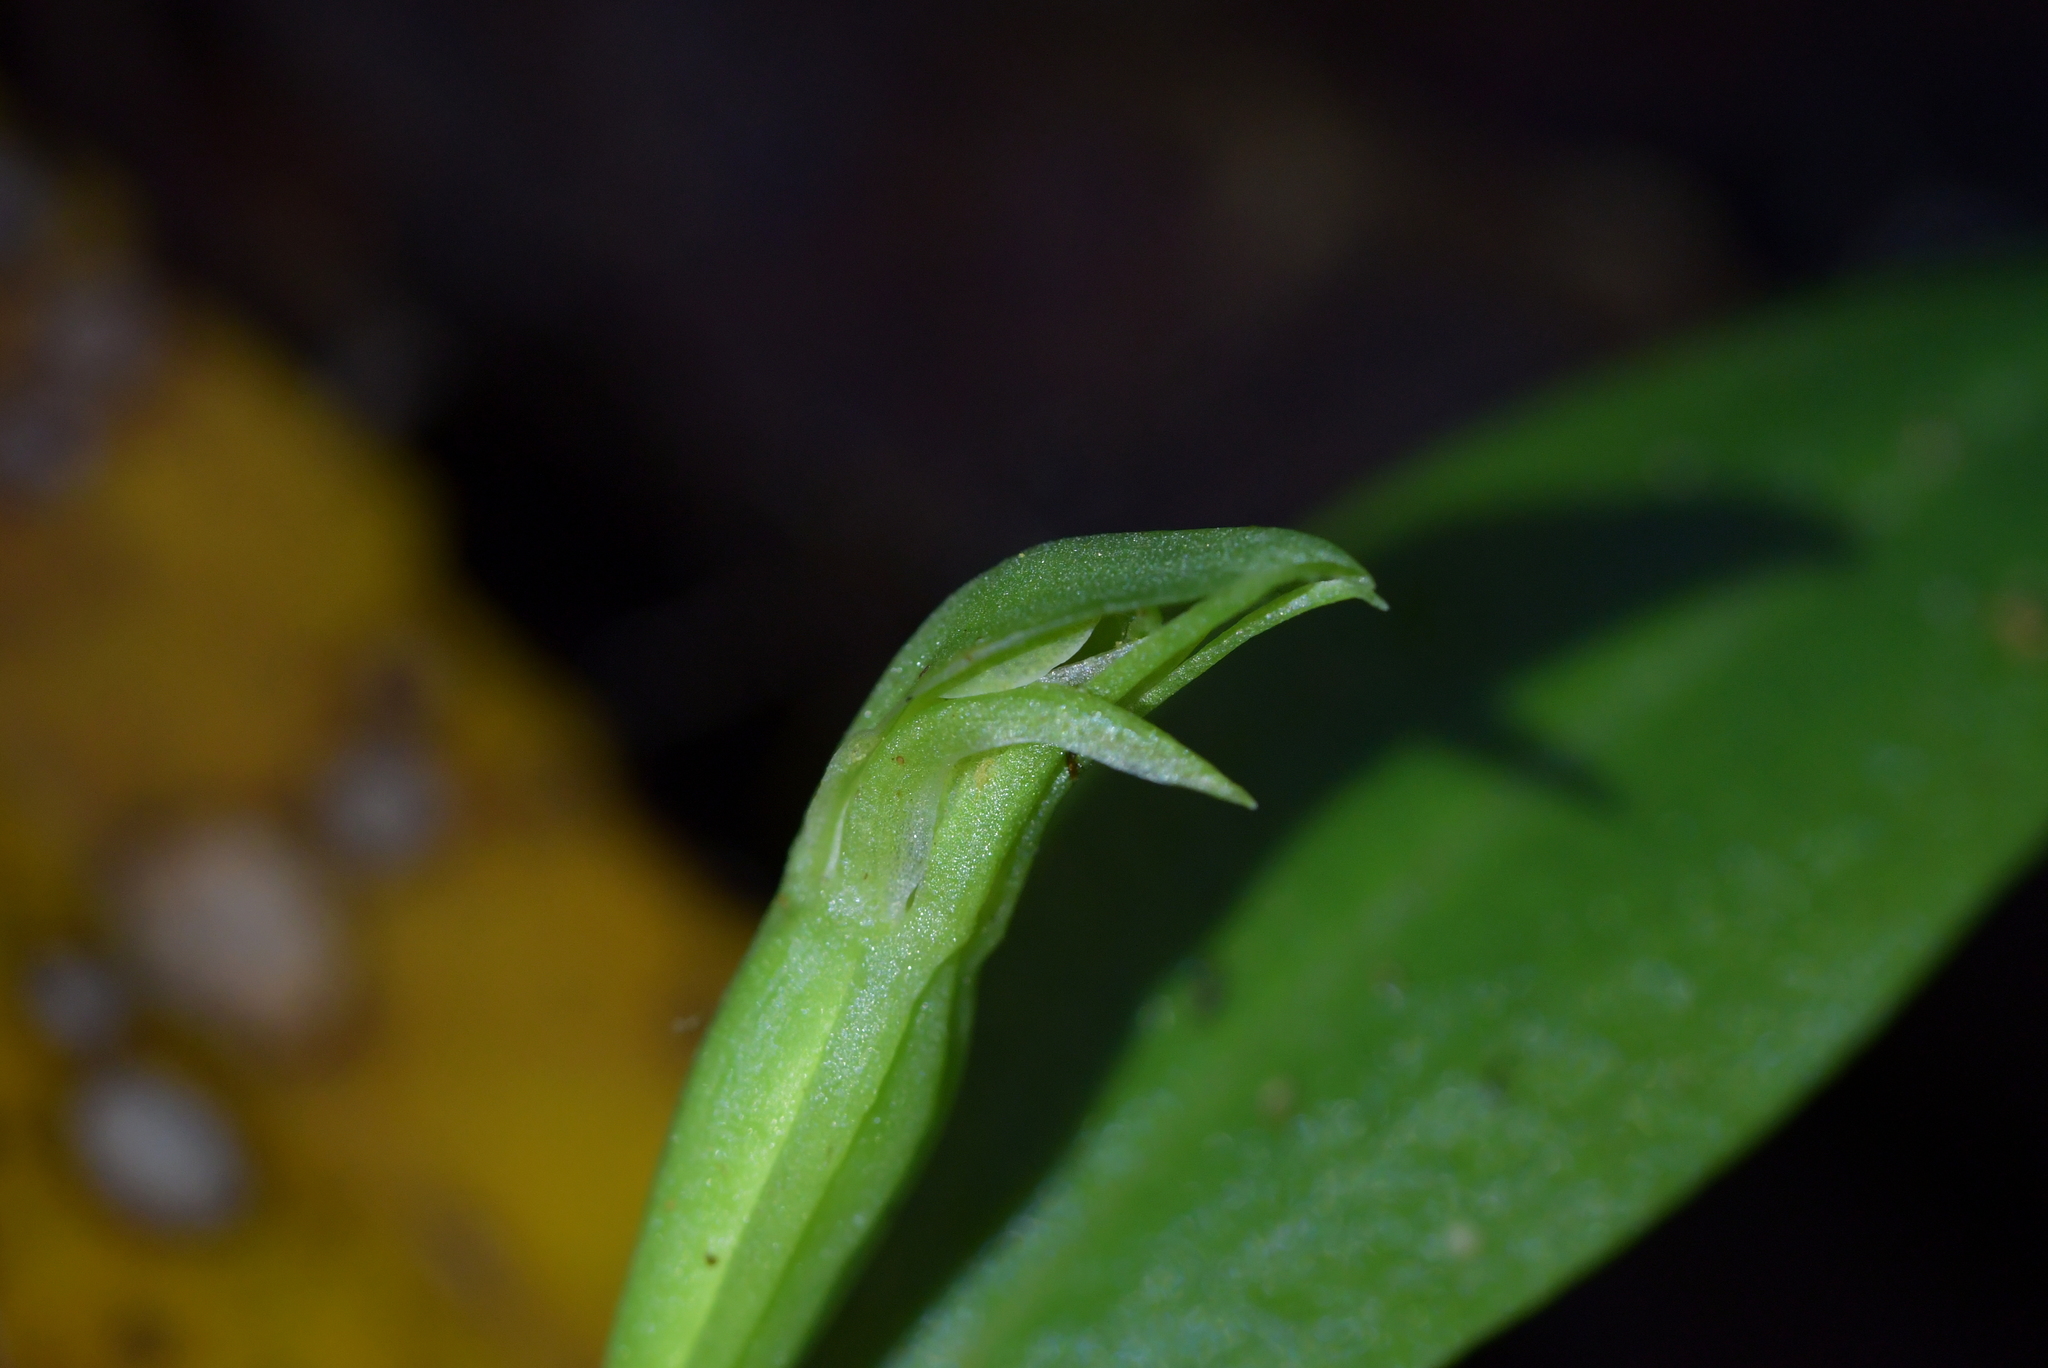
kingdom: Plantae
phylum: Tracheophyta
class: Liliopsida
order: Asparagales
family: Orchidaceae
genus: Chiloglottis
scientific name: Chiloglottis cornuta
